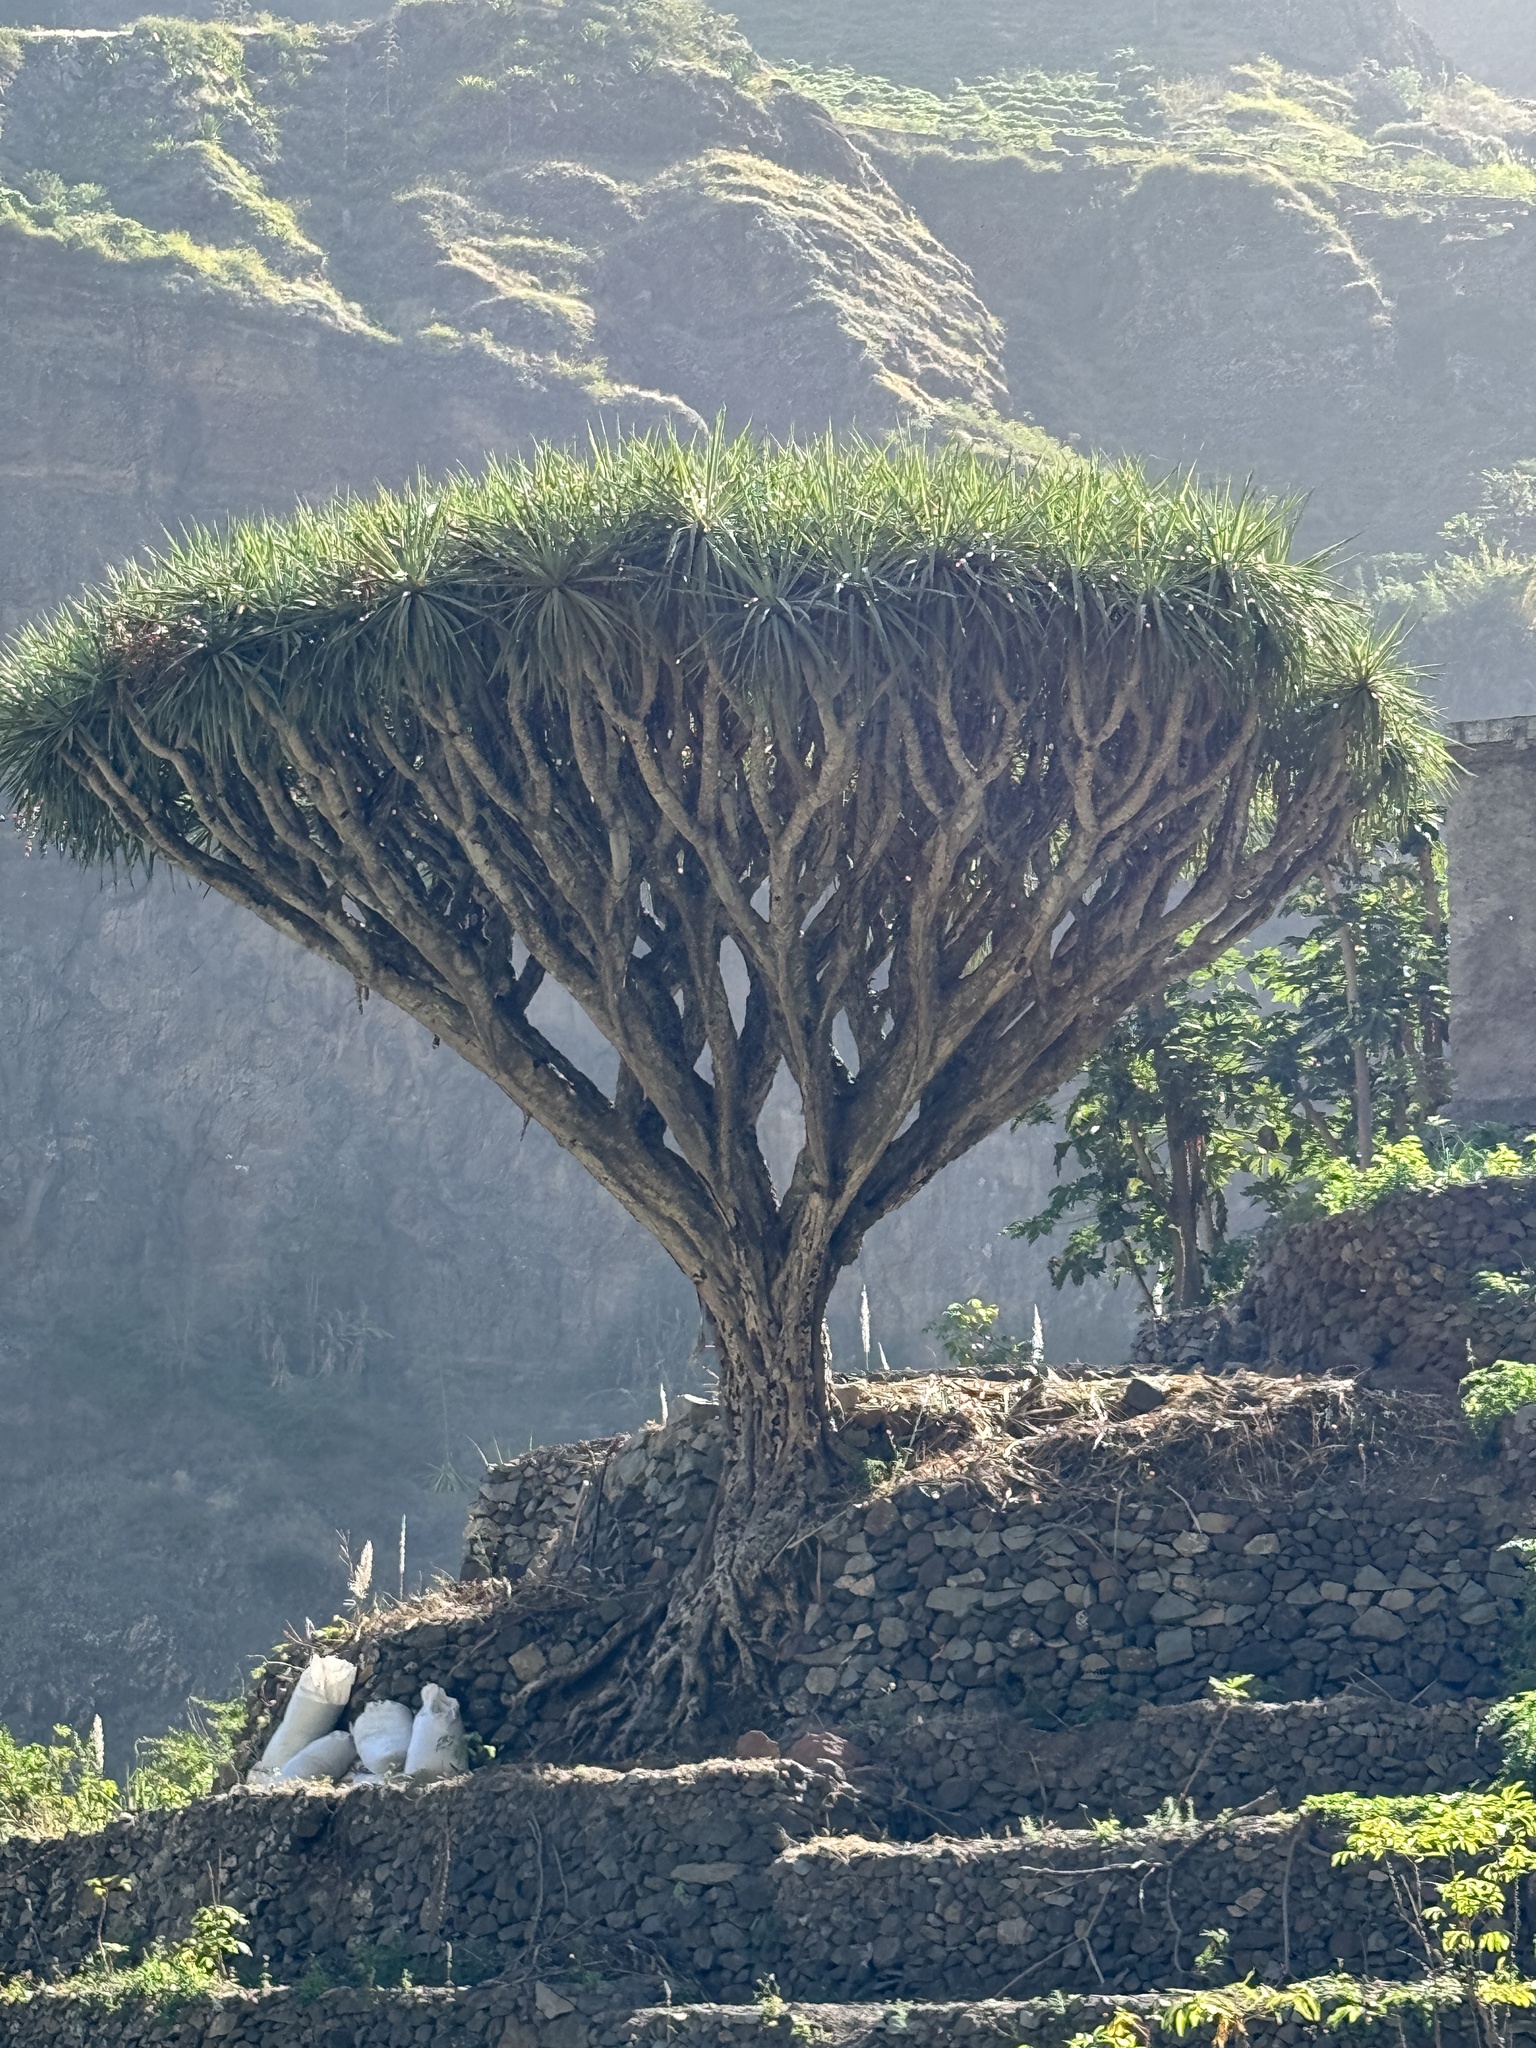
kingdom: Plantae
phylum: Tracheophyta
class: Liliopsida
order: Asparagales
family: Asparagaceae
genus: Dracaena
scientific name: Dracaena caboverdeana
